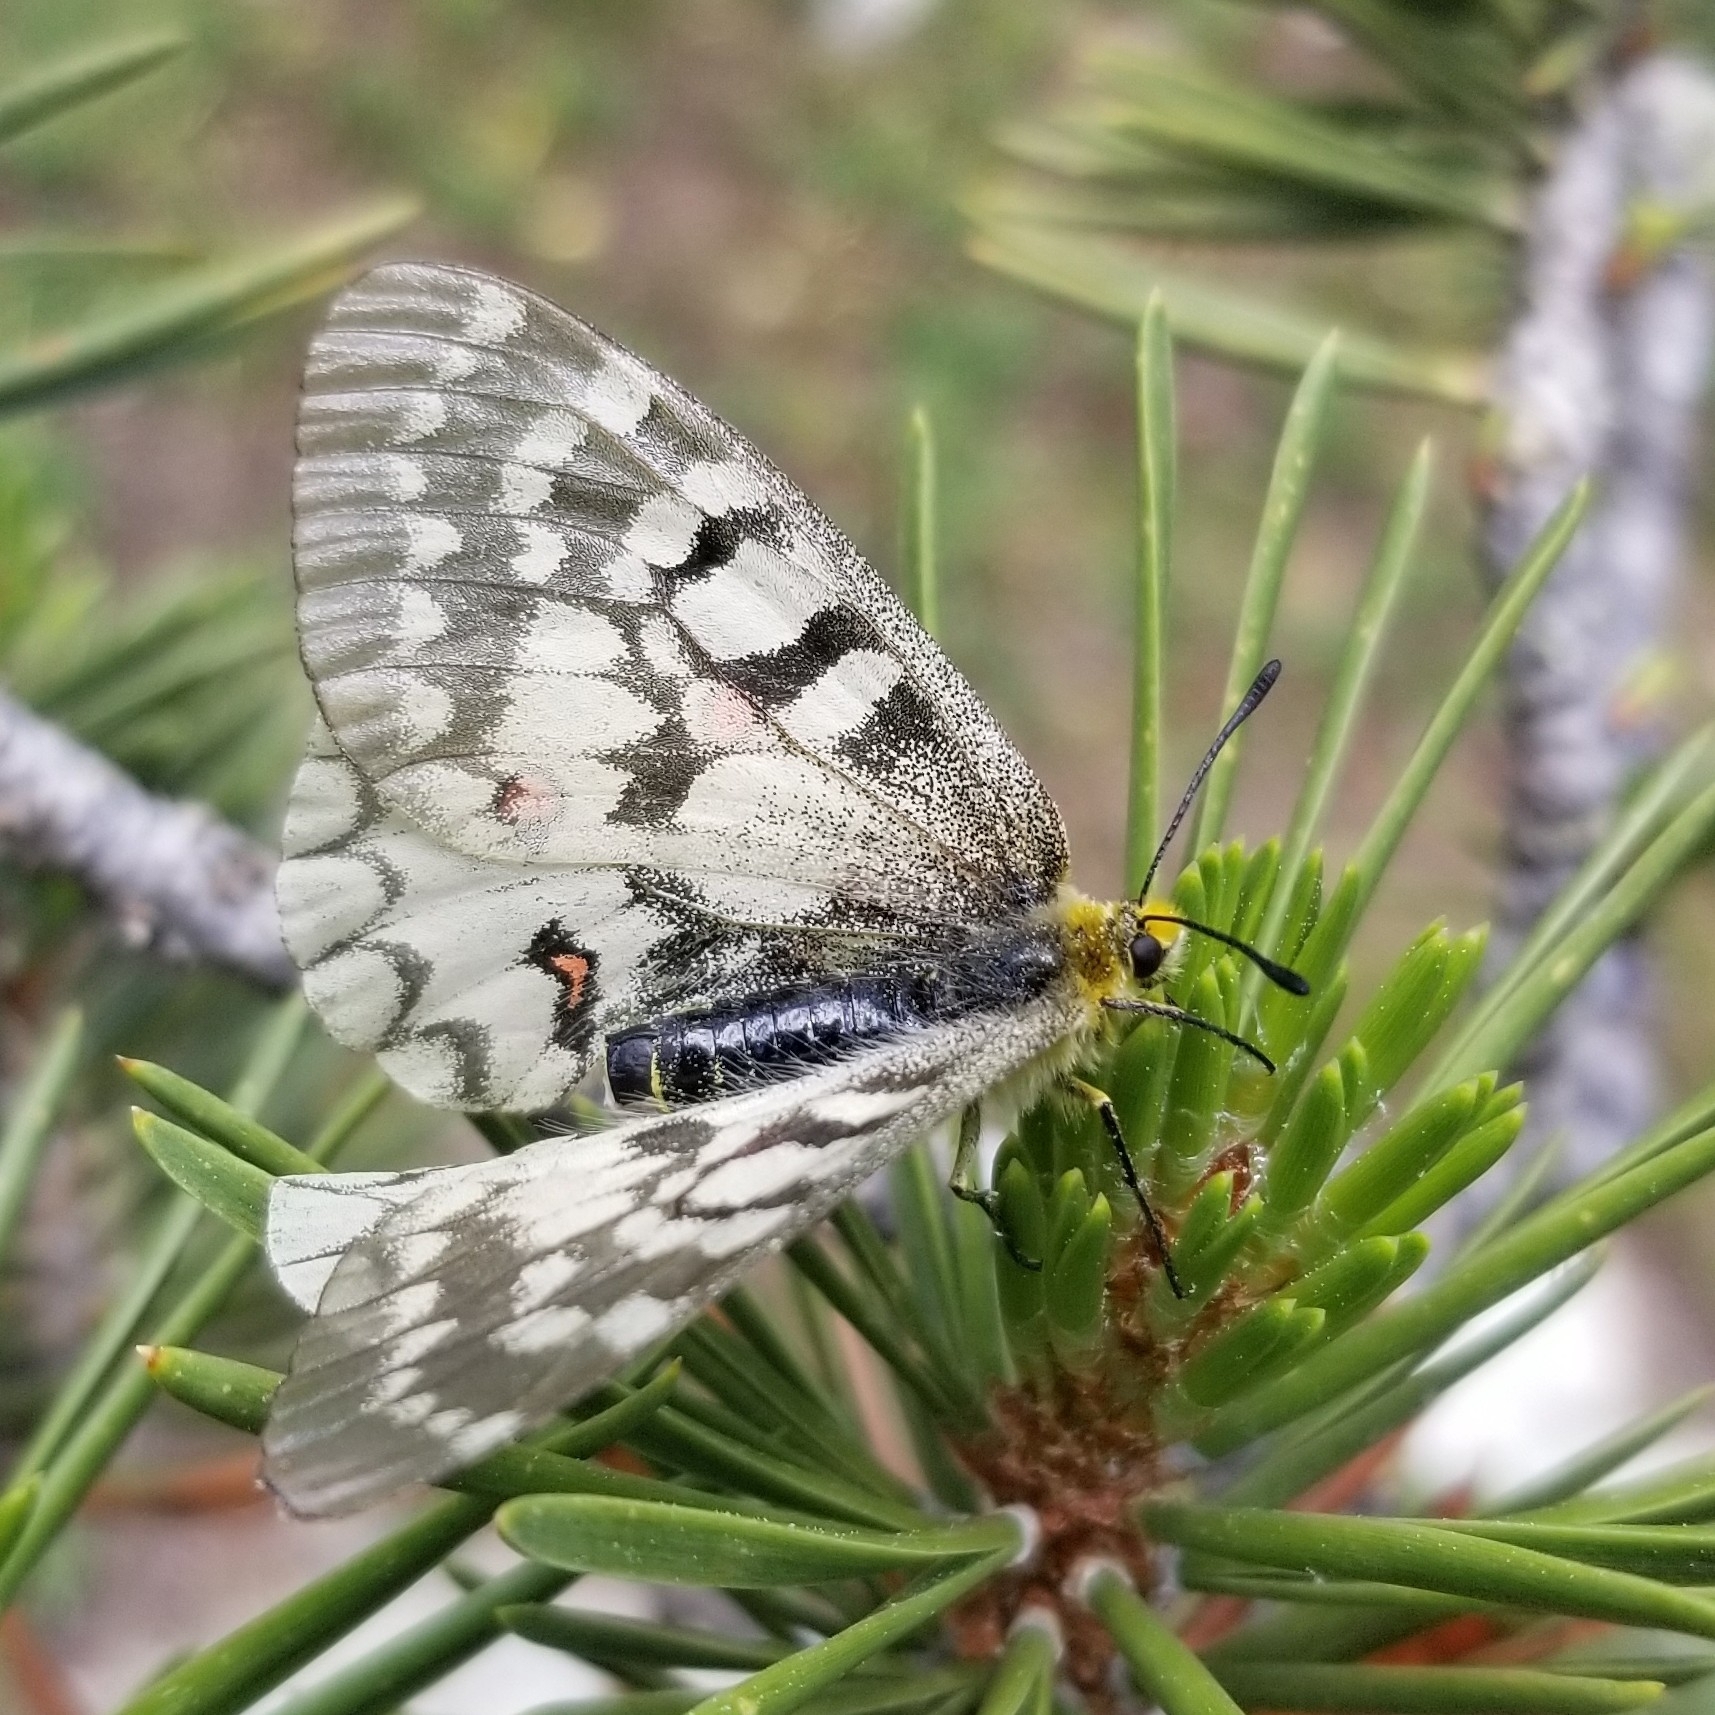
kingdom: Animalia
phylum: Arthropoda
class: Insecta
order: Lepidoptera
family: Papilionidae
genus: Parnassius
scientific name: Parnassius clodius
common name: American apollo
